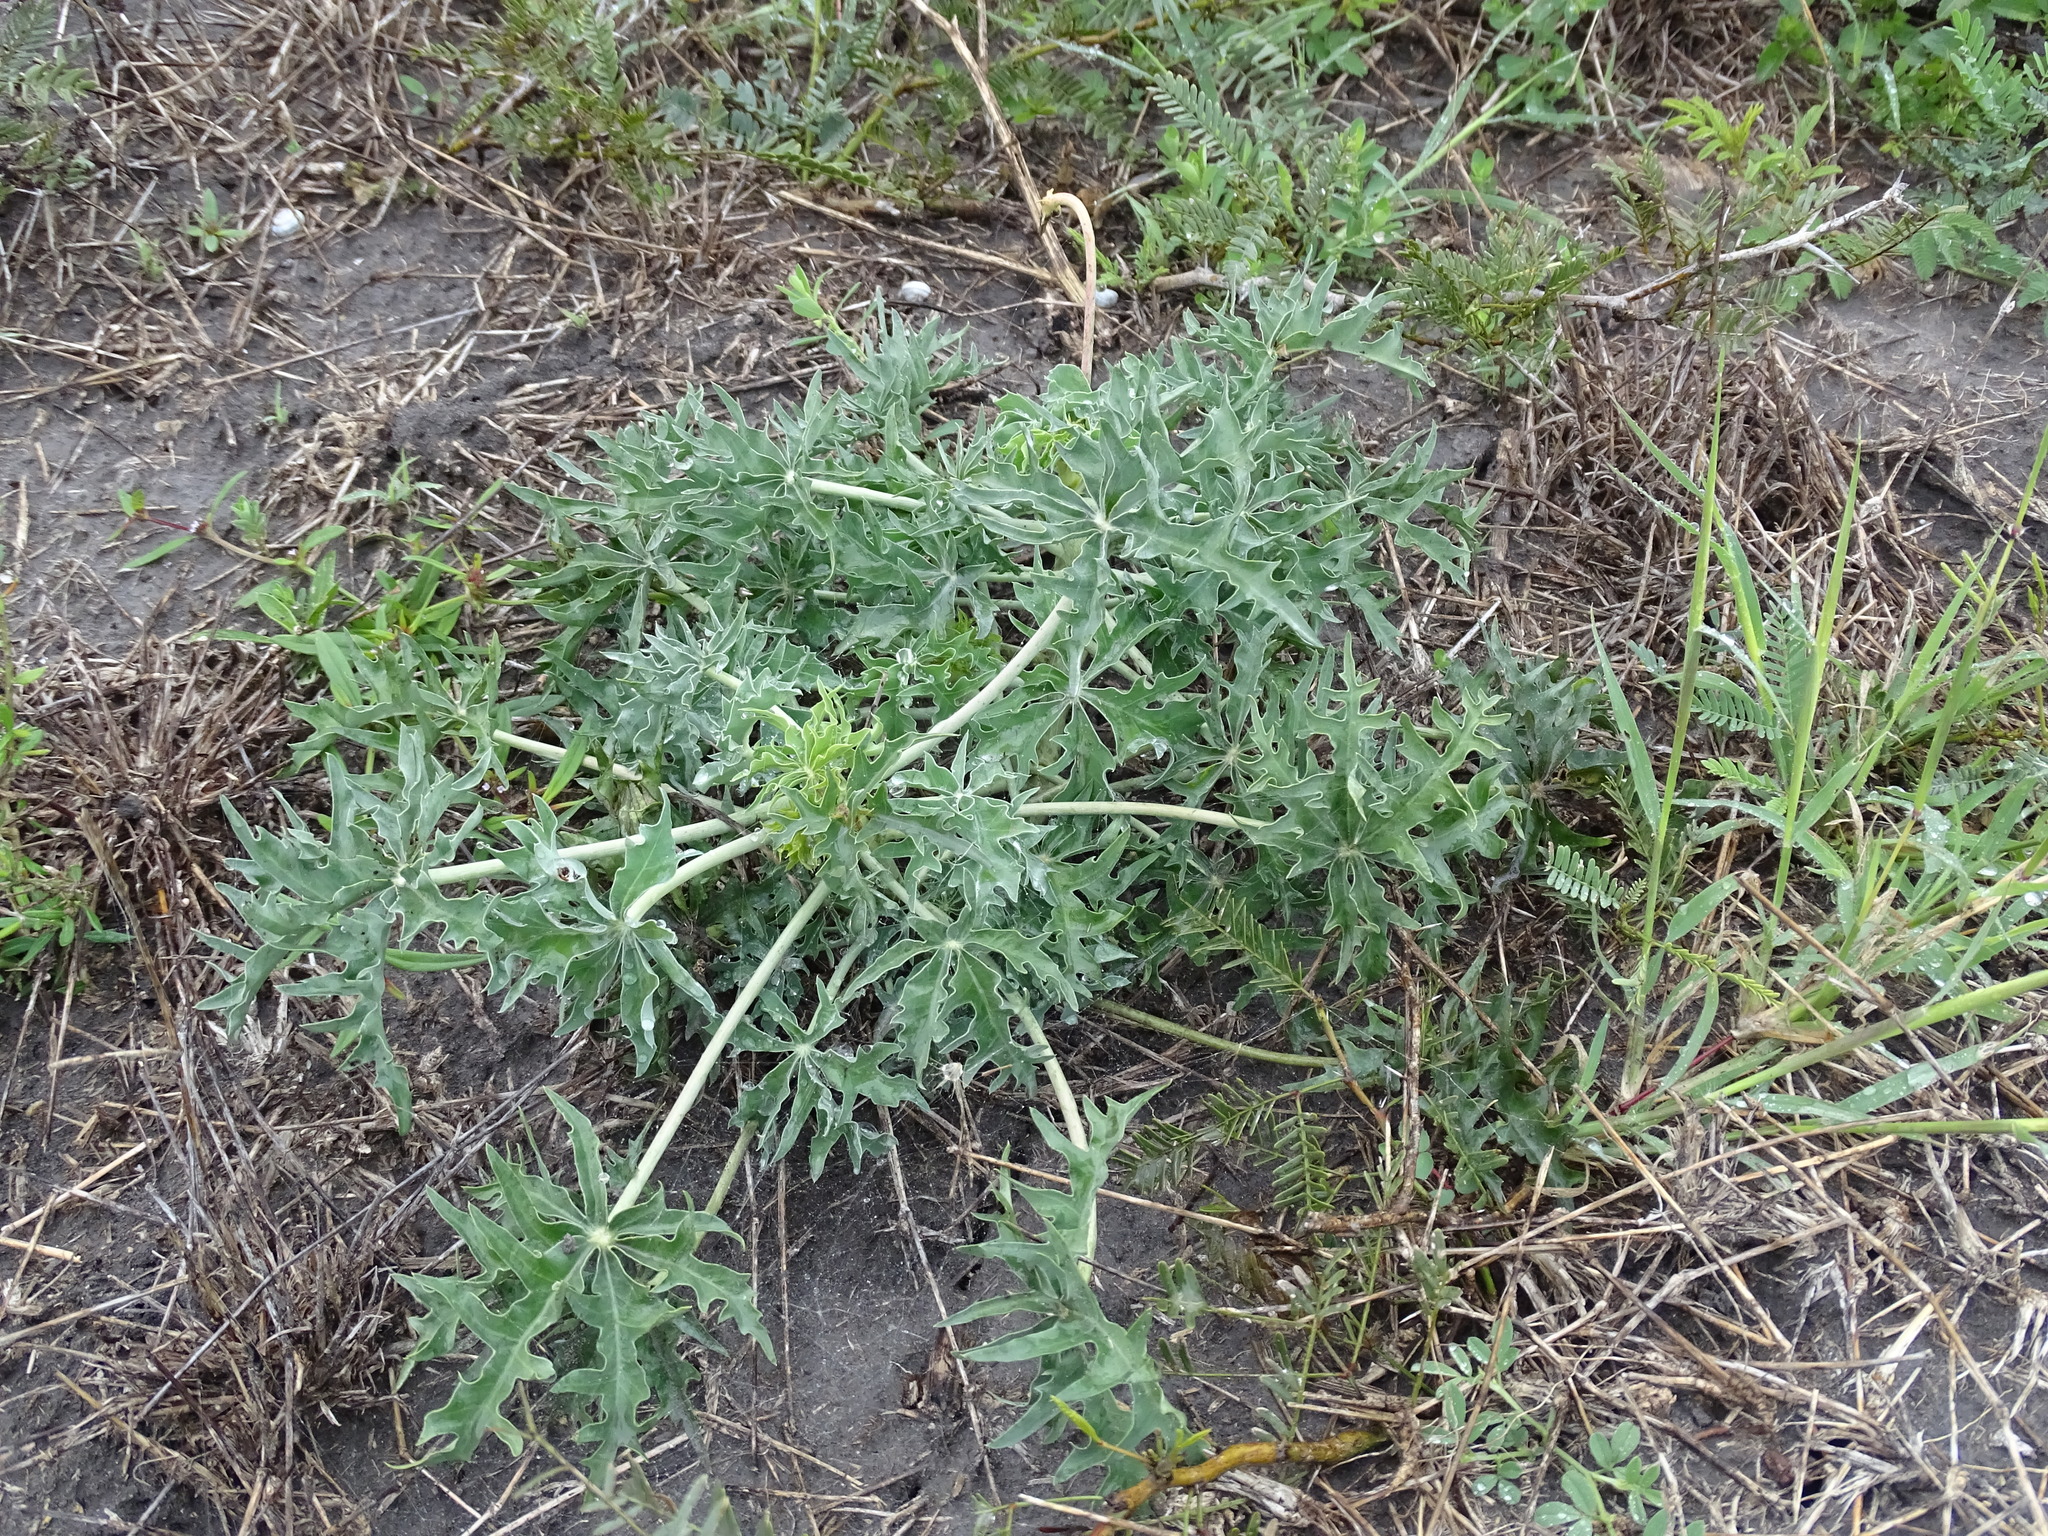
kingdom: Plantae
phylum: Tracheophyta
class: Magnoliopsida
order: Malpighiales
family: Euphorbiaceae
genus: Jatropha
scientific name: Jatropha cathartica
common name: Berlander's nettlespurge
